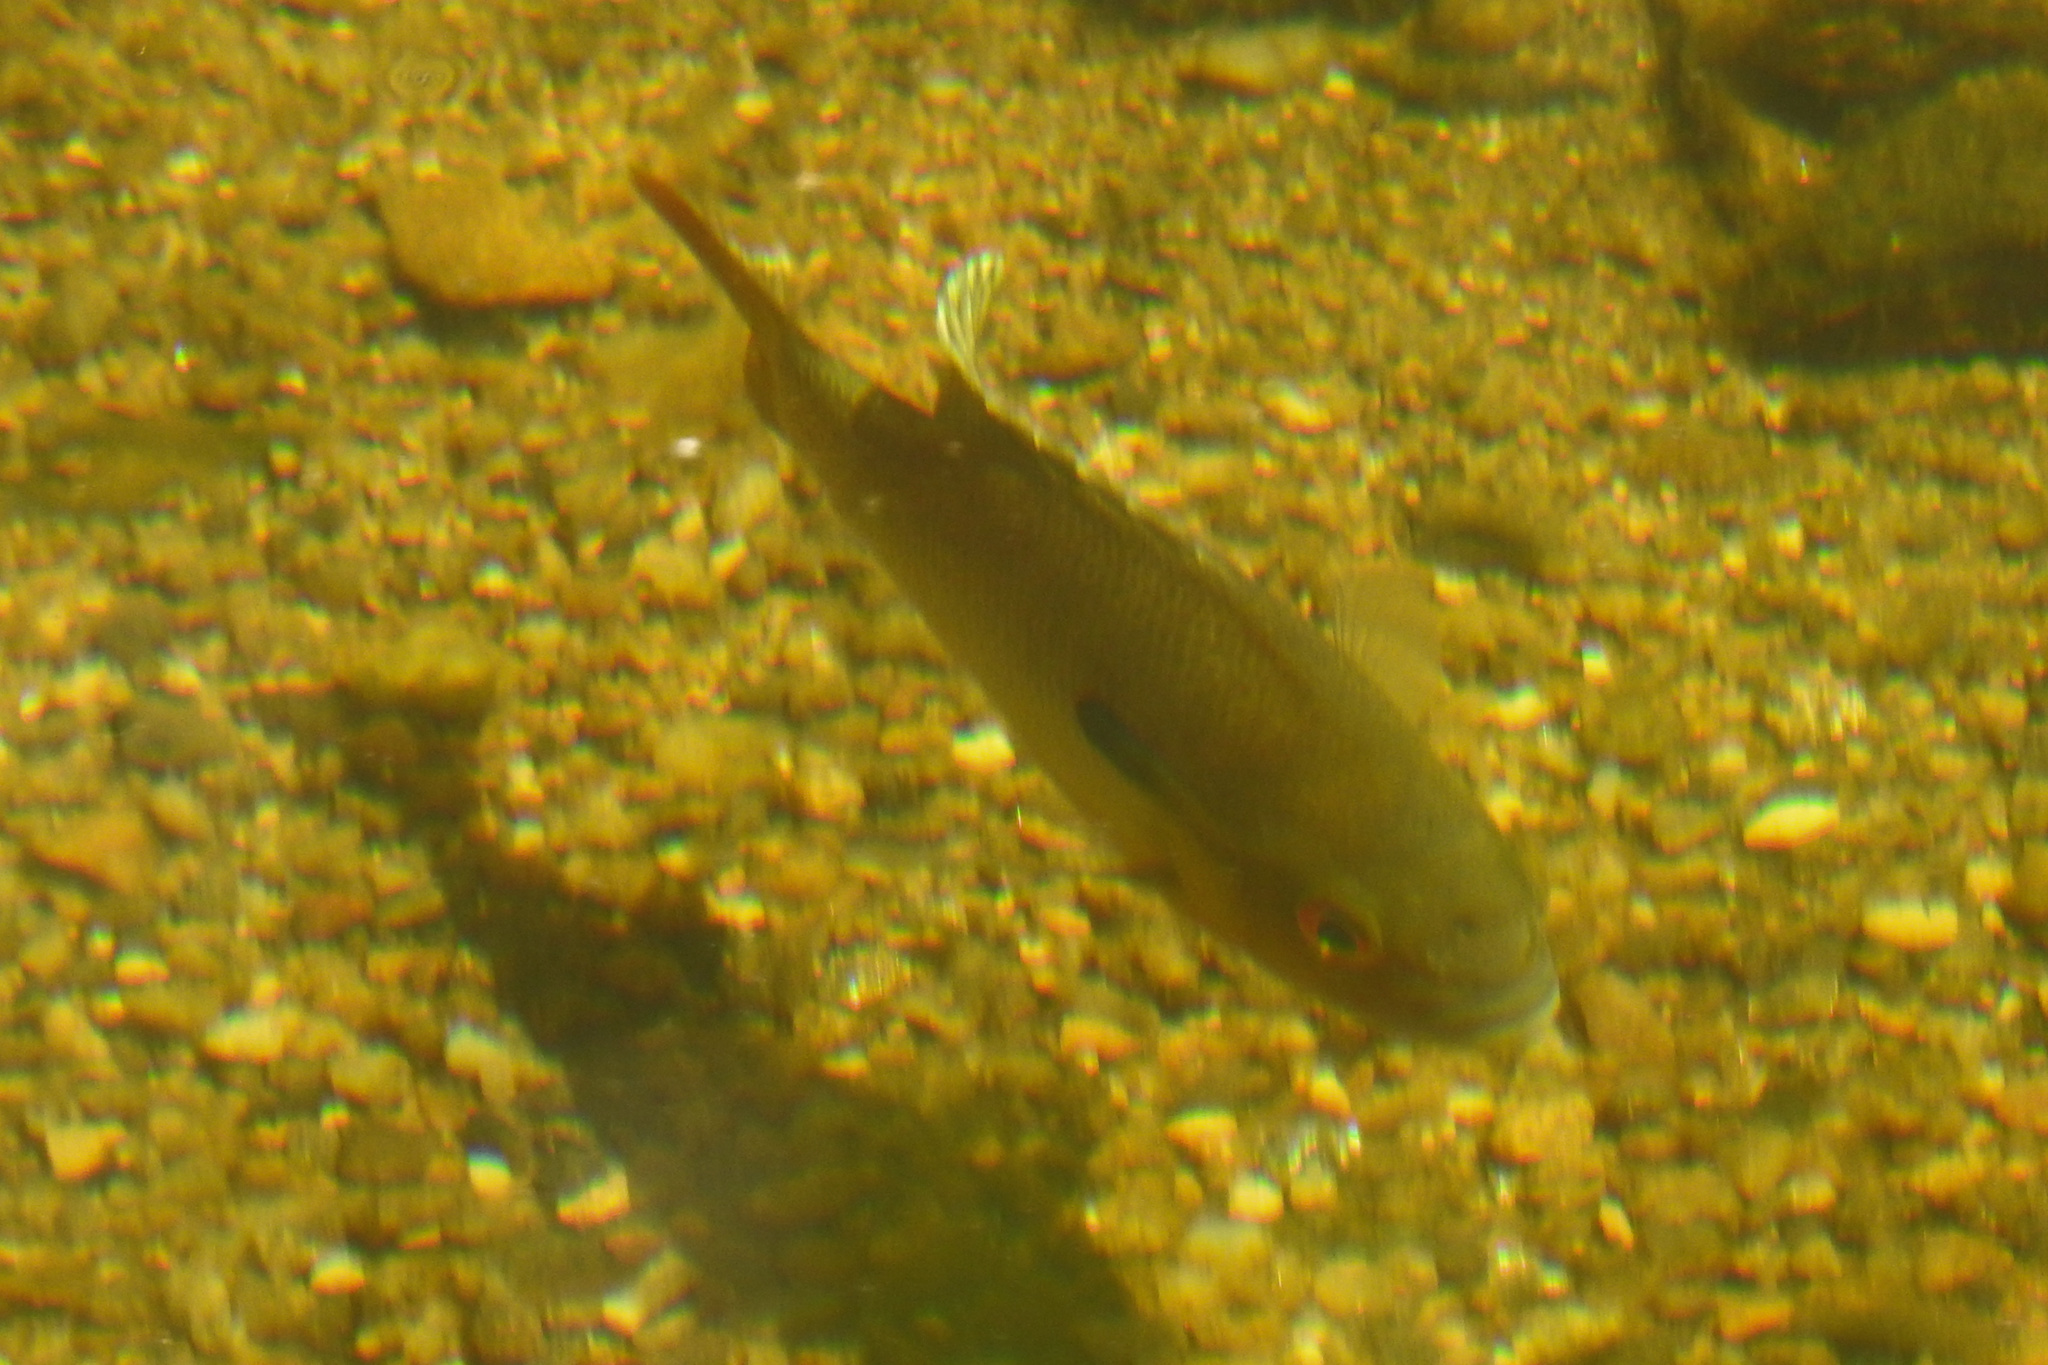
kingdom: Animalia
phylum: Chordata
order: Perciformes
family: Centrarchidae
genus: Lepomis
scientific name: Lepomis auritus
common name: Redbreast sunfish
